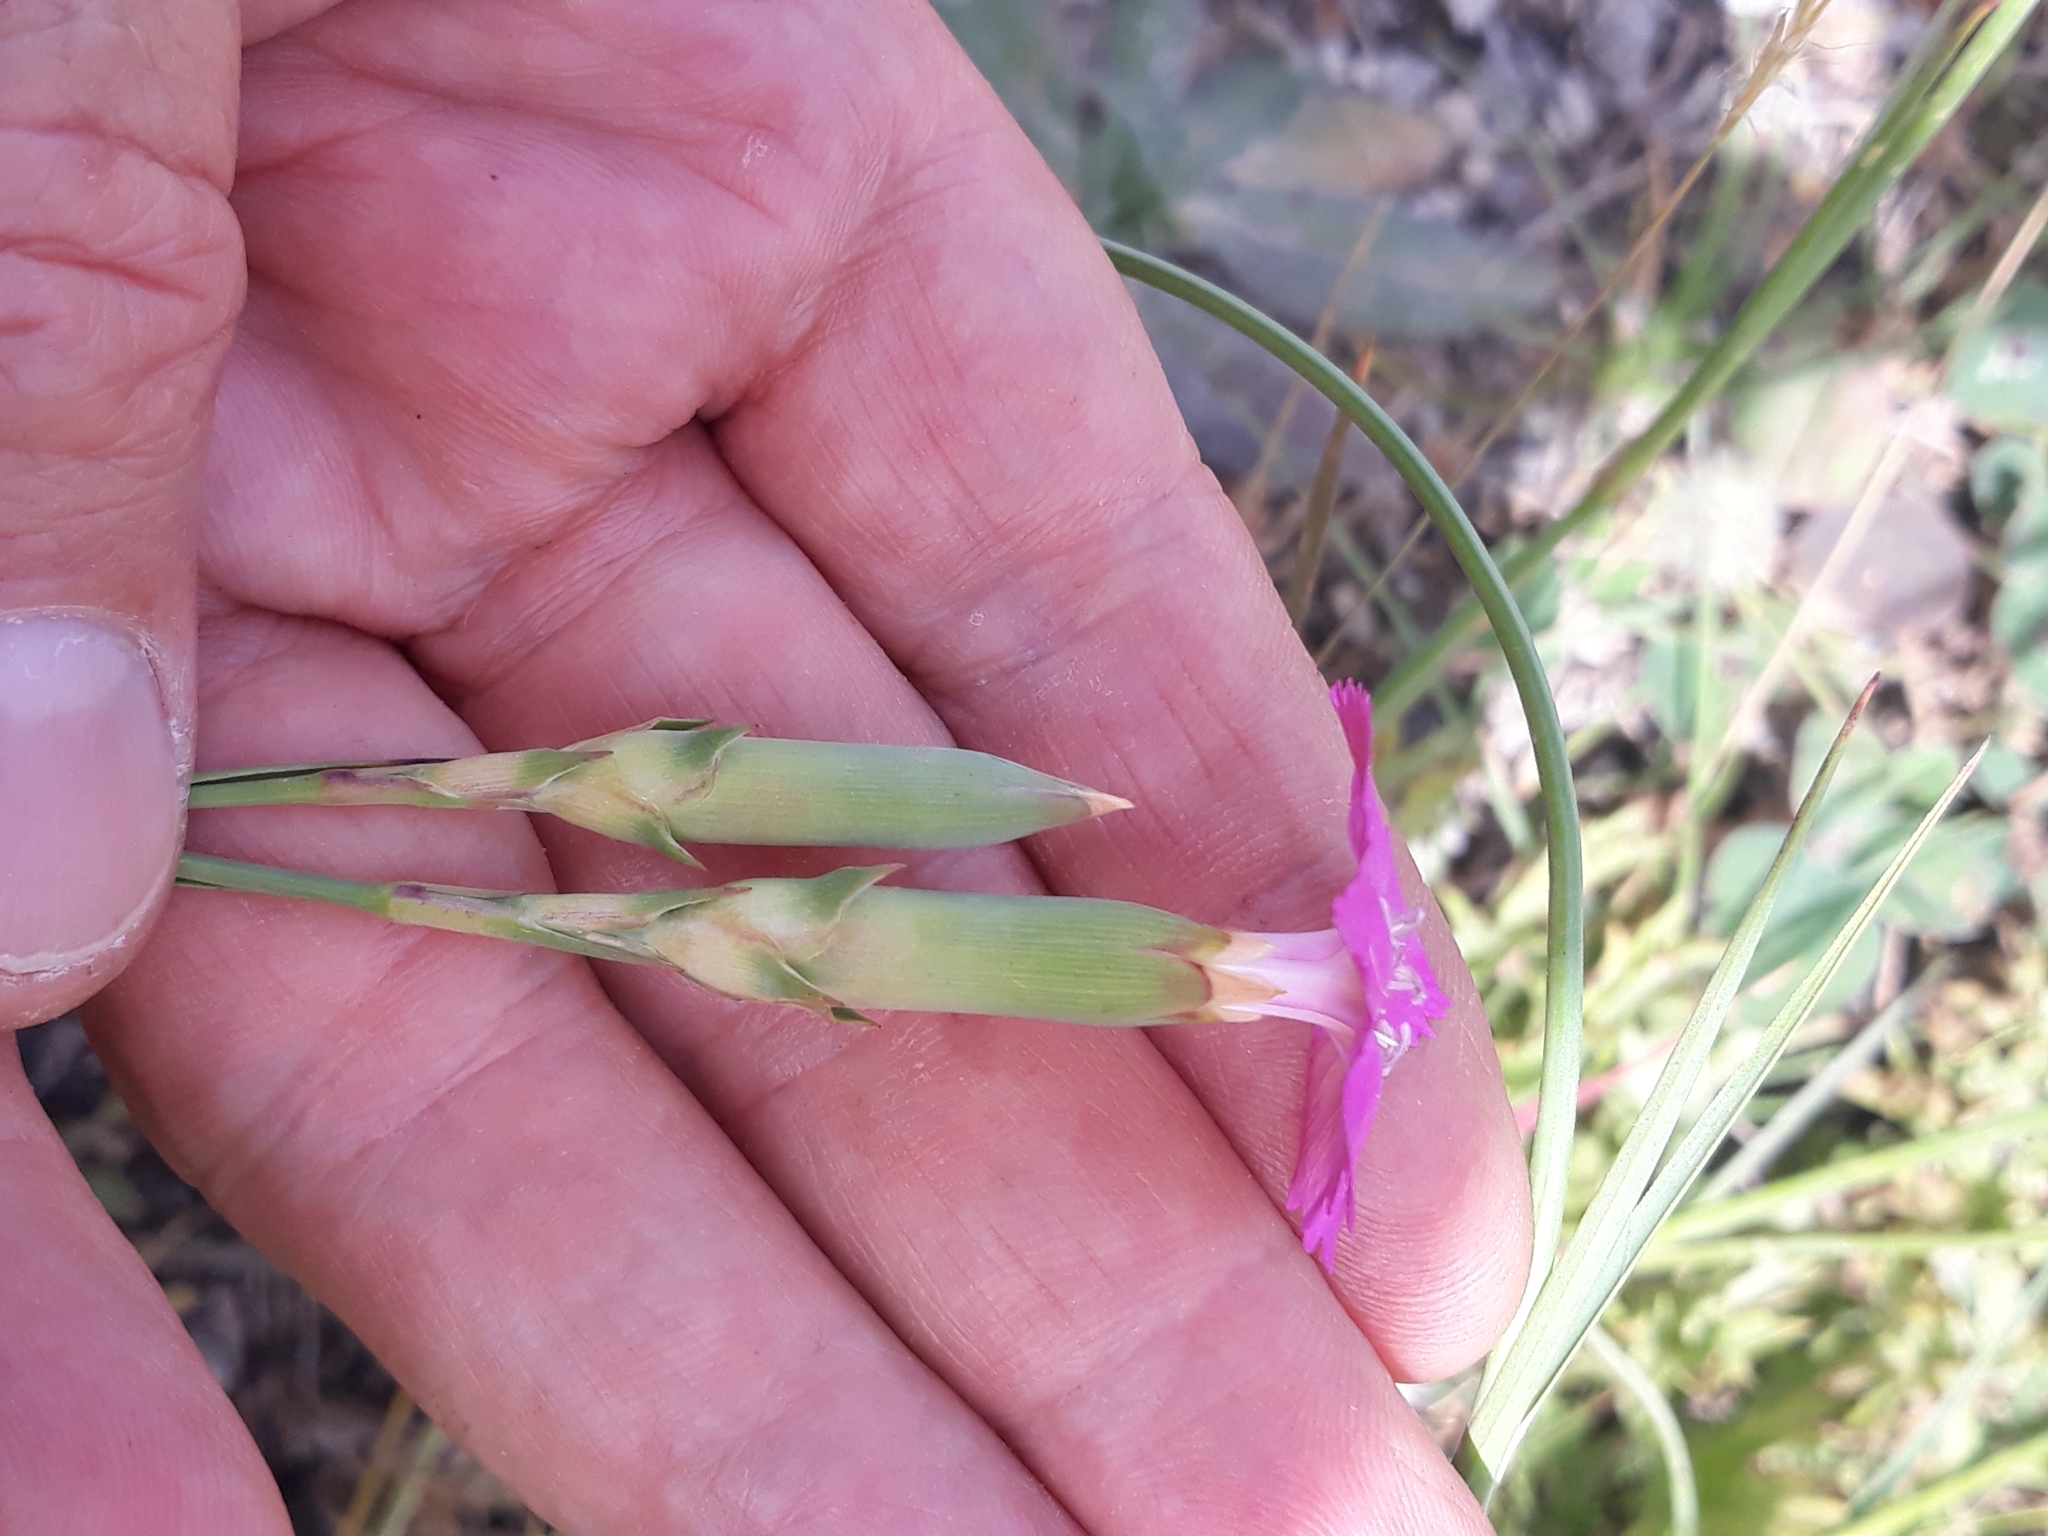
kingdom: Plantae
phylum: Tracheophyta
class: Magnoliopsida
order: Caryophyllales
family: Caryophyllaceae
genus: Dianthus
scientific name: Dianthus sylvestris
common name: Wood pink
